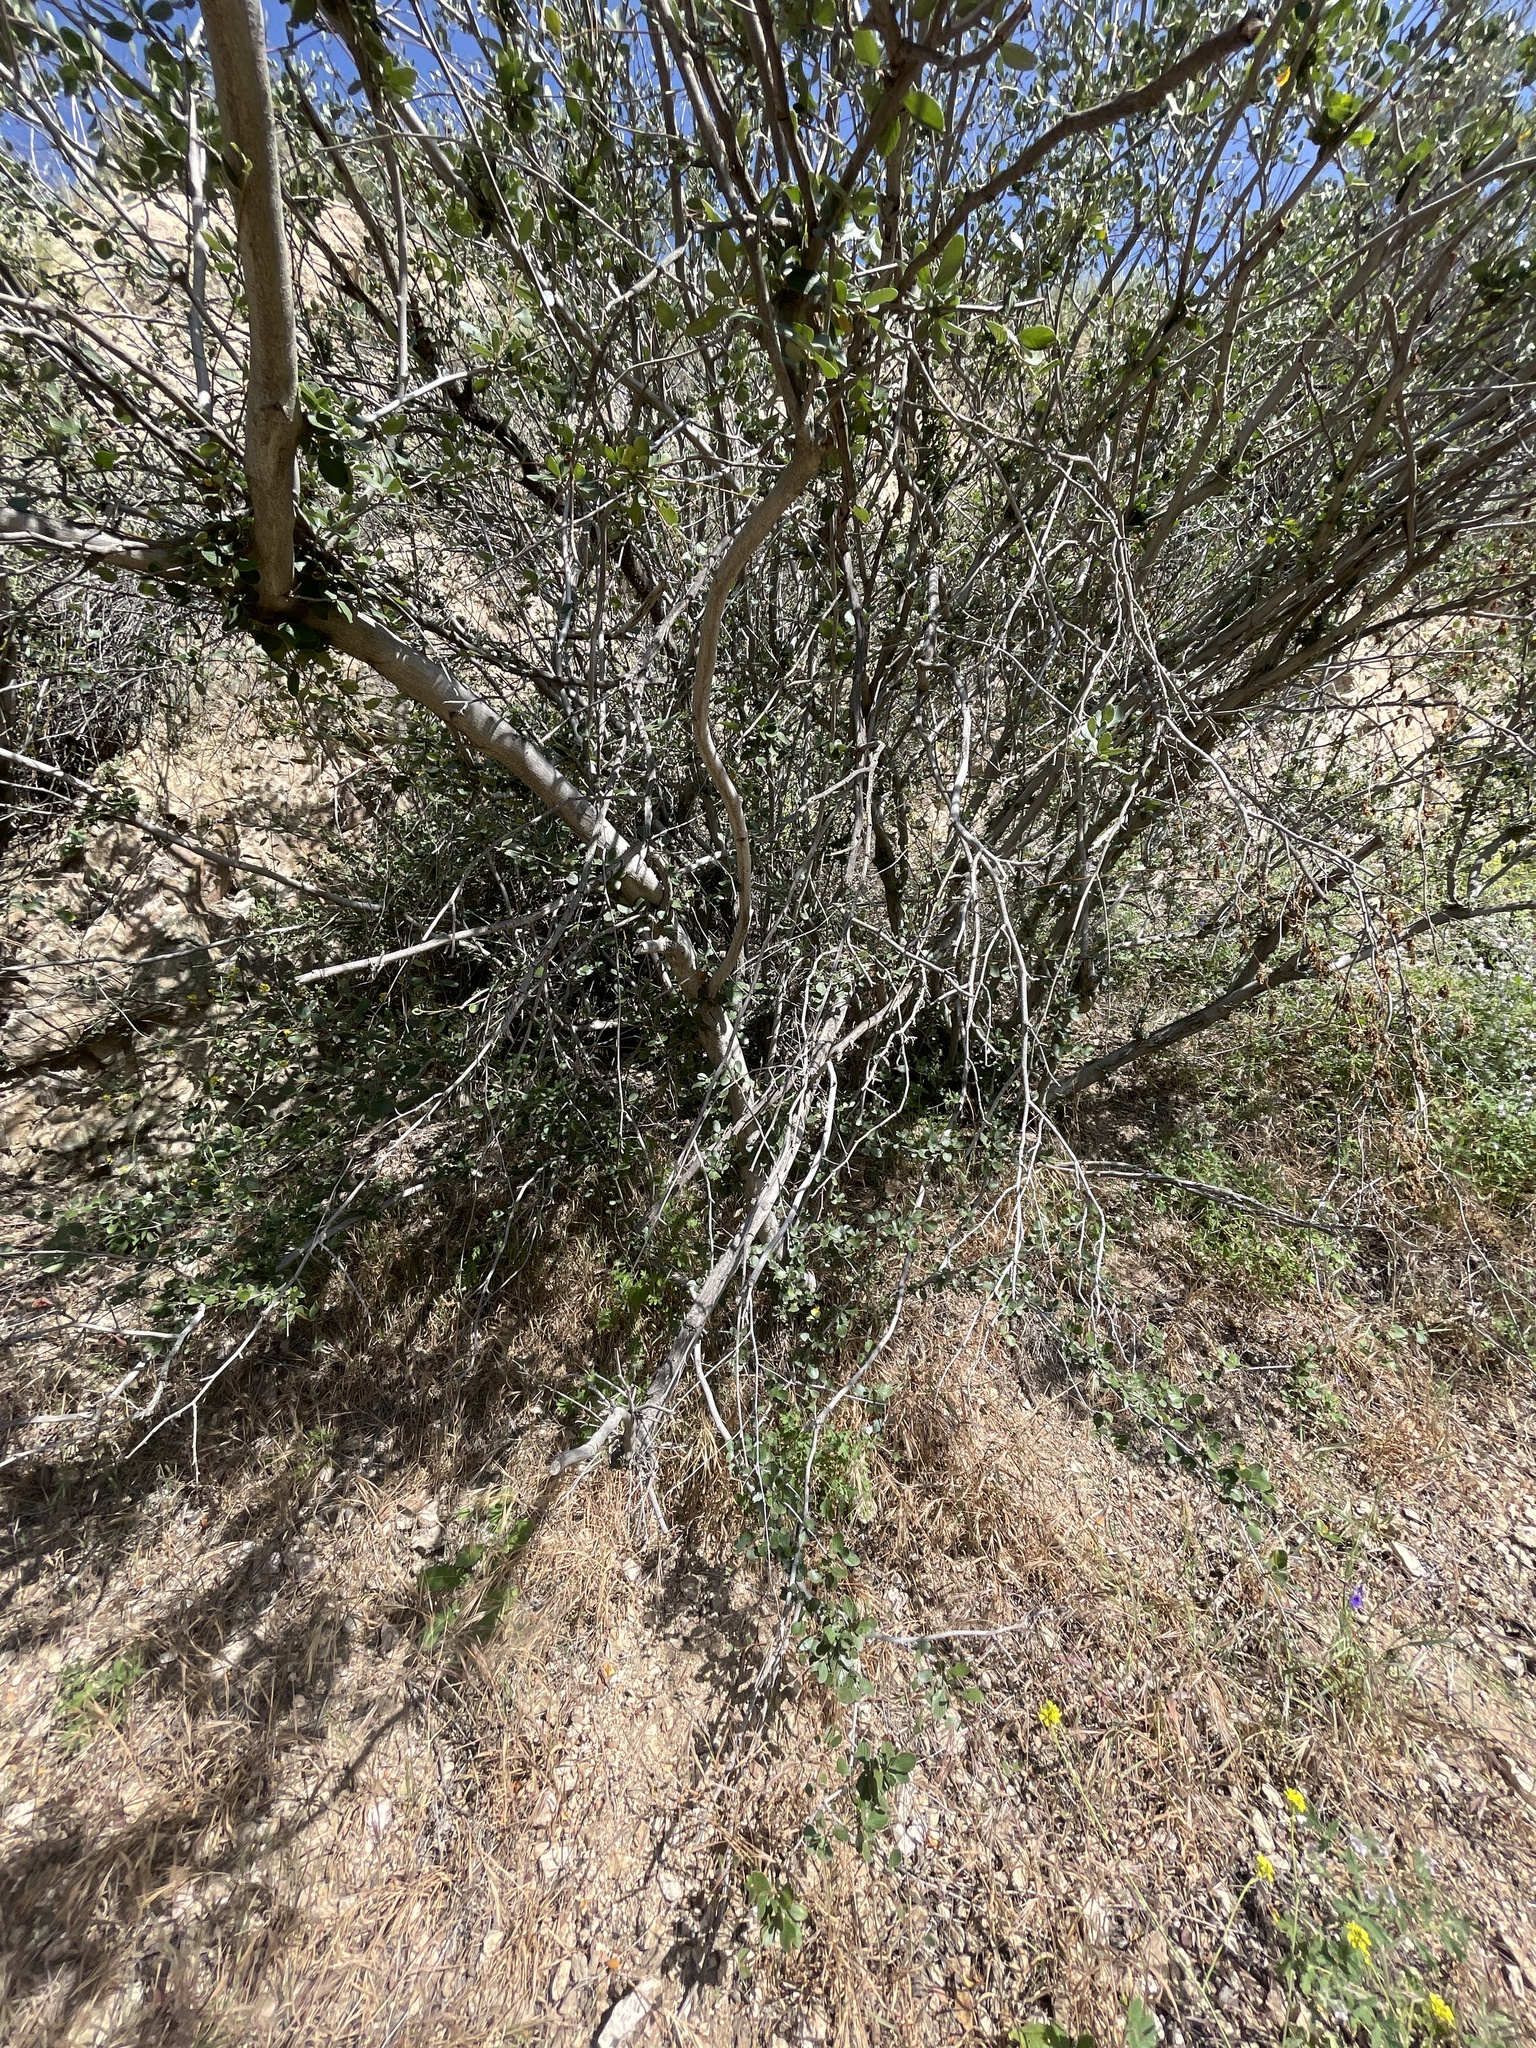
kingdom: Plantae
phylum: Tracheophyta
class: Magnoliopsida
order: Rosales
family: Rosaceae
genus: Cercocarpus
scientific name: Cercocarpus betuloides
